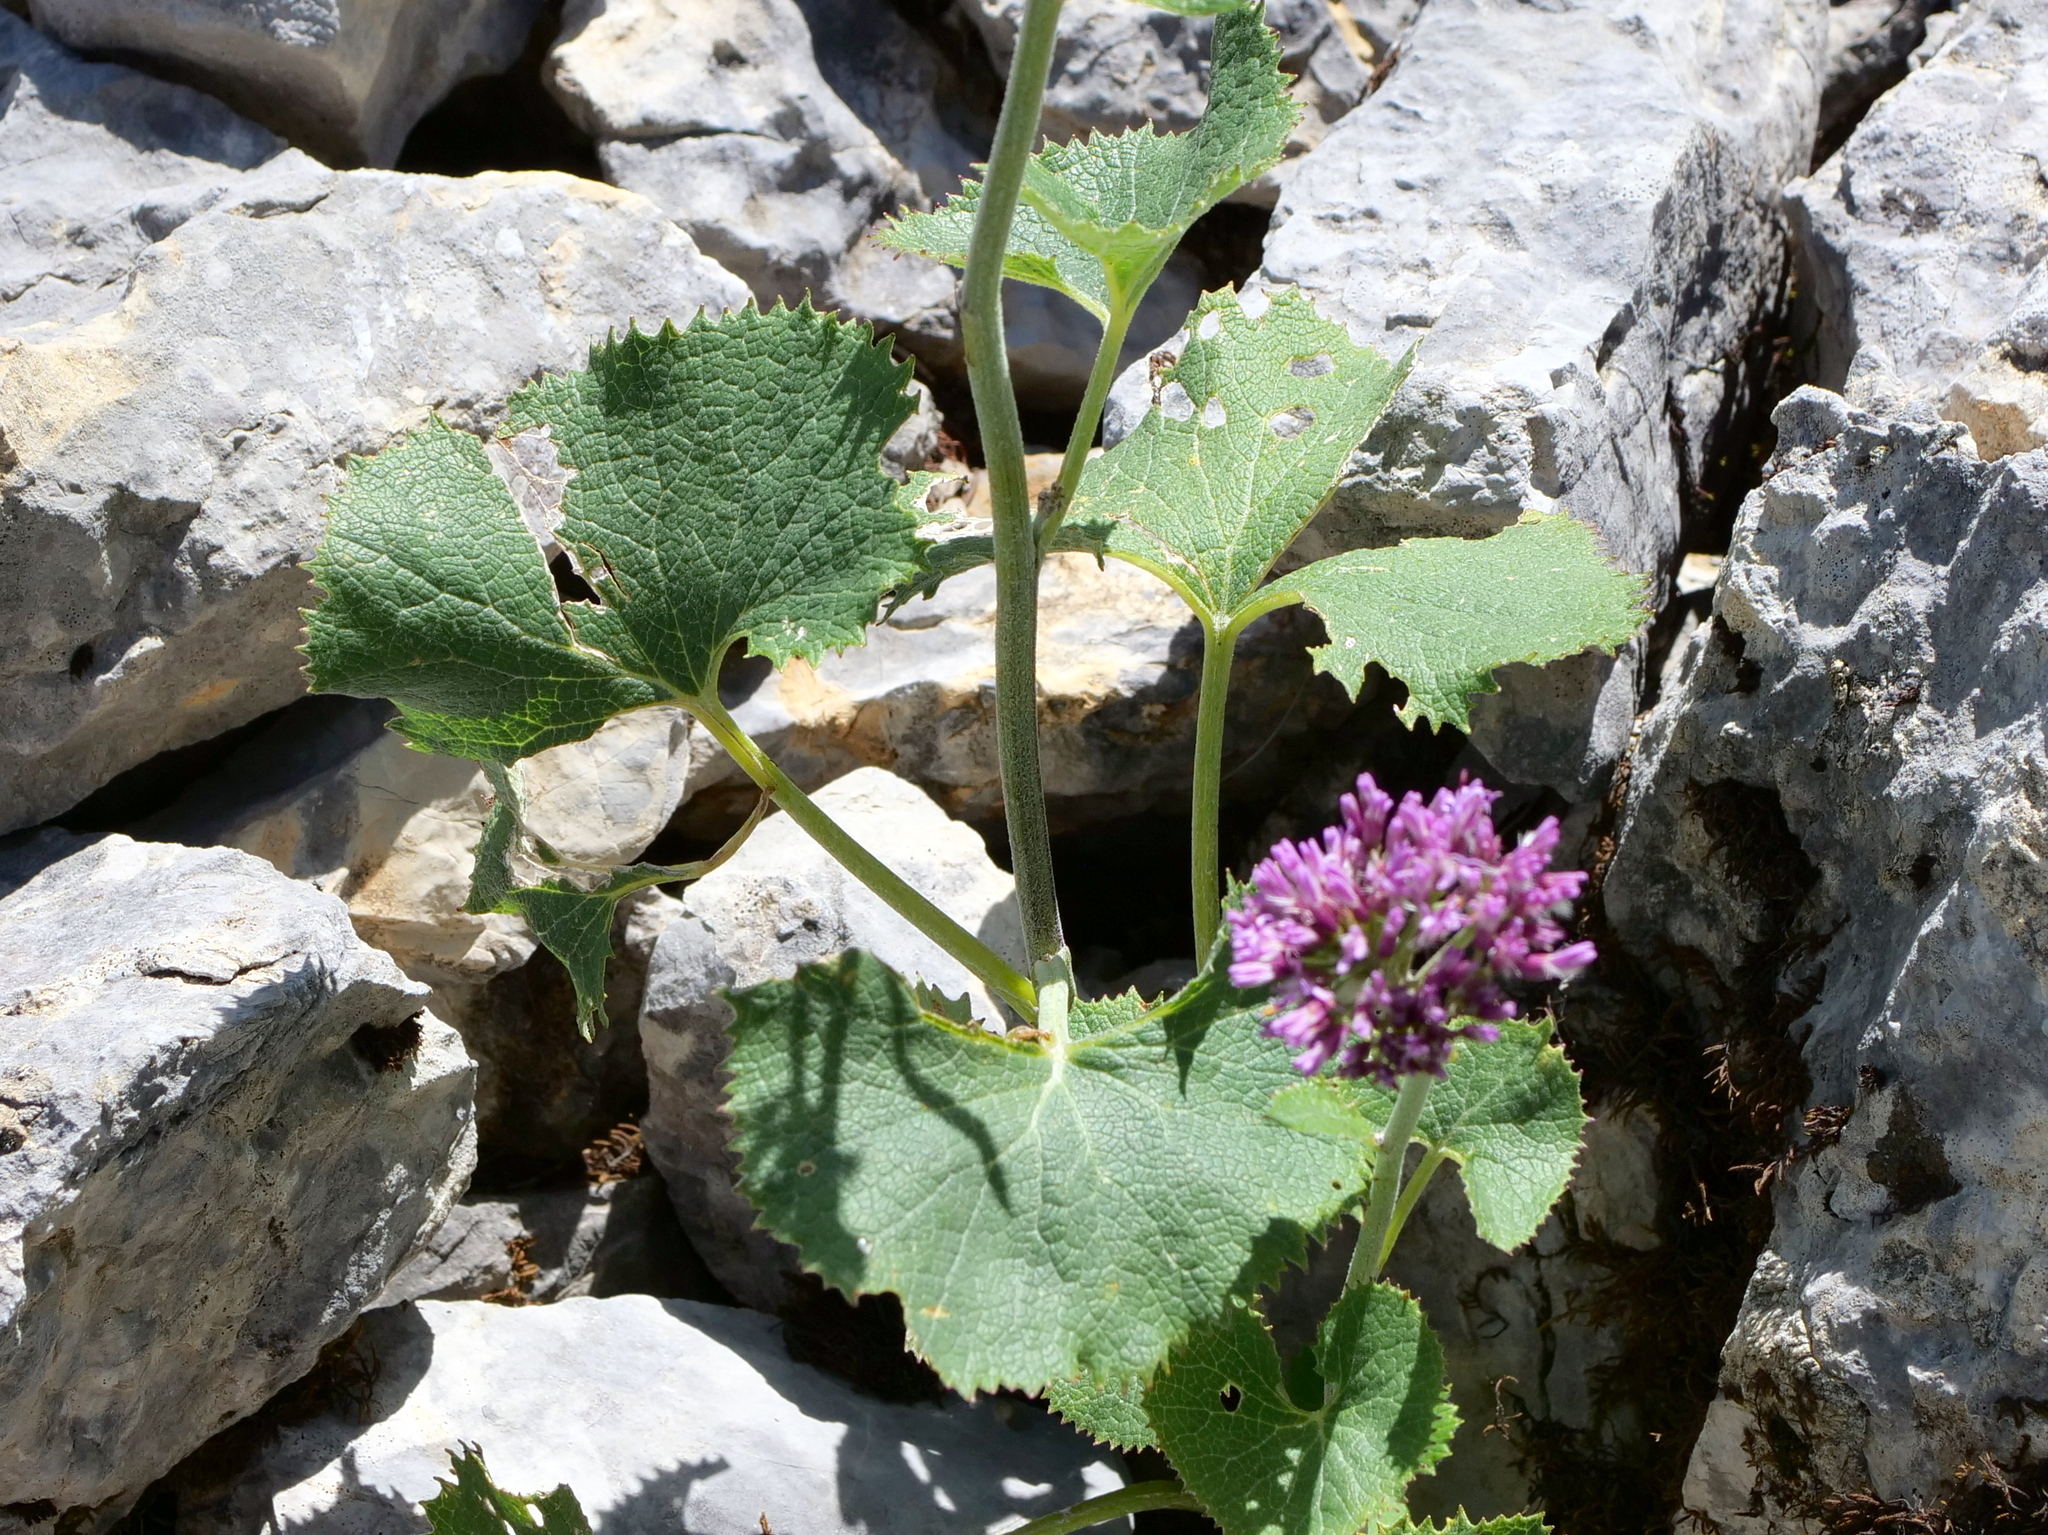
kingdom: Plantae
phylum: Tracheophyta
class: Magnoliopsida
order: Asterales
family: Asteraceae
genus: Adenostyles
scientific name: Adenostyles alpina
